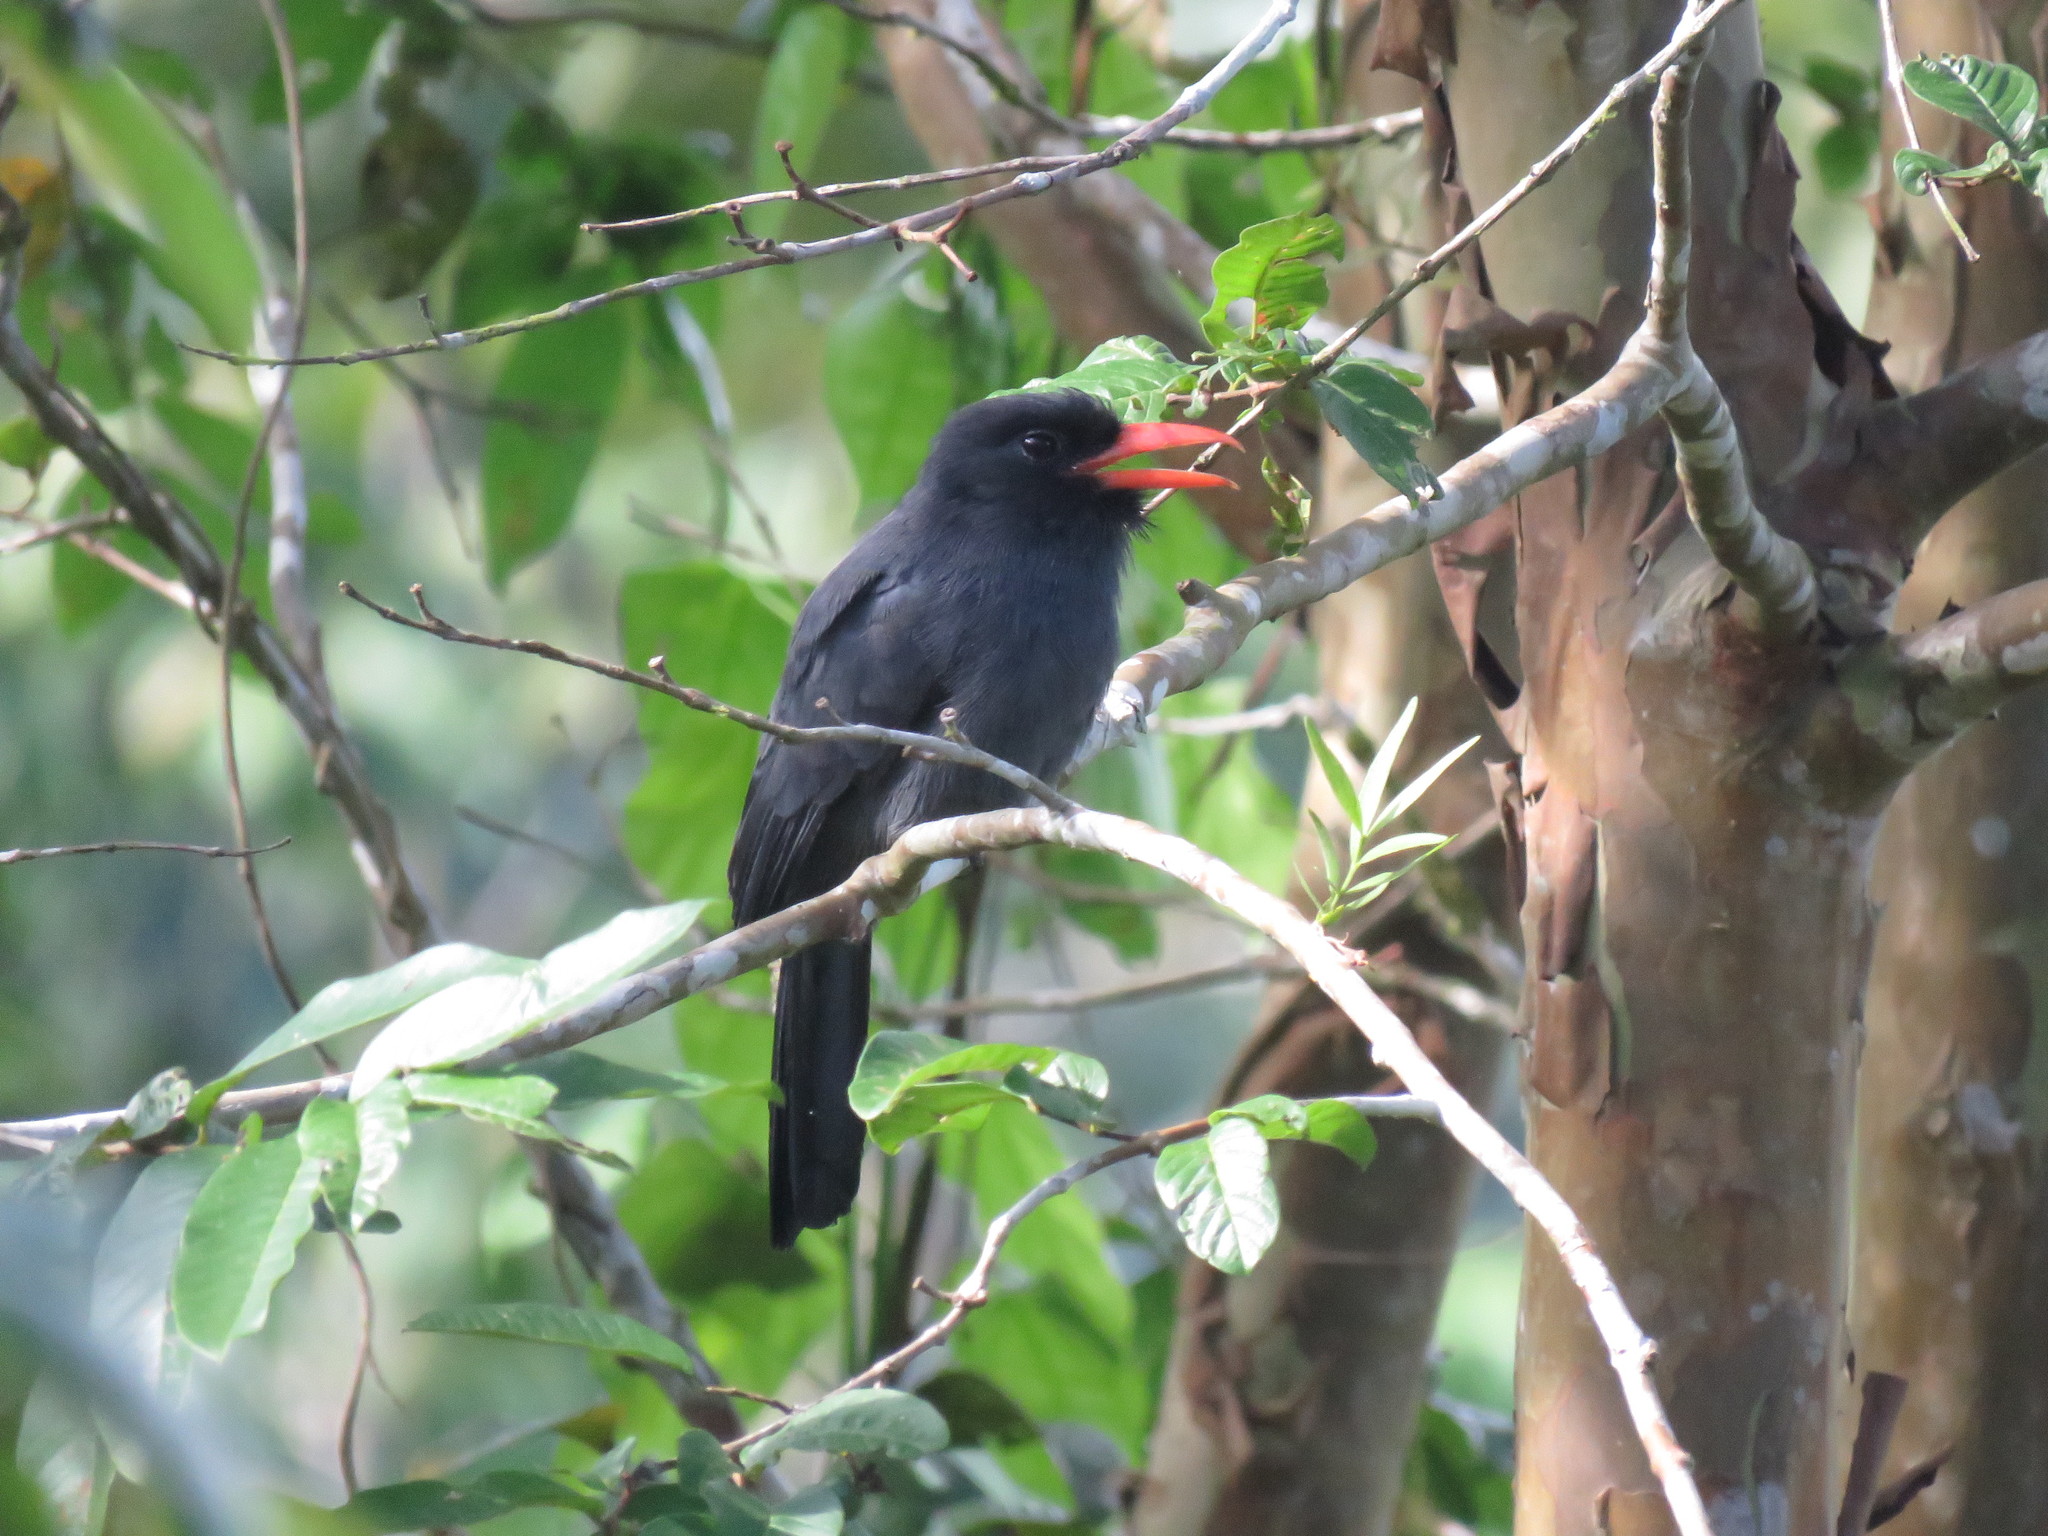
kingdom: Animalia
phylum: Chordata
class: Aves
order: Piciformes
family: Bucconidae
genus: Monasa
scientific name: Monasa nigrifrons
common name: Black-fronted nunbird
